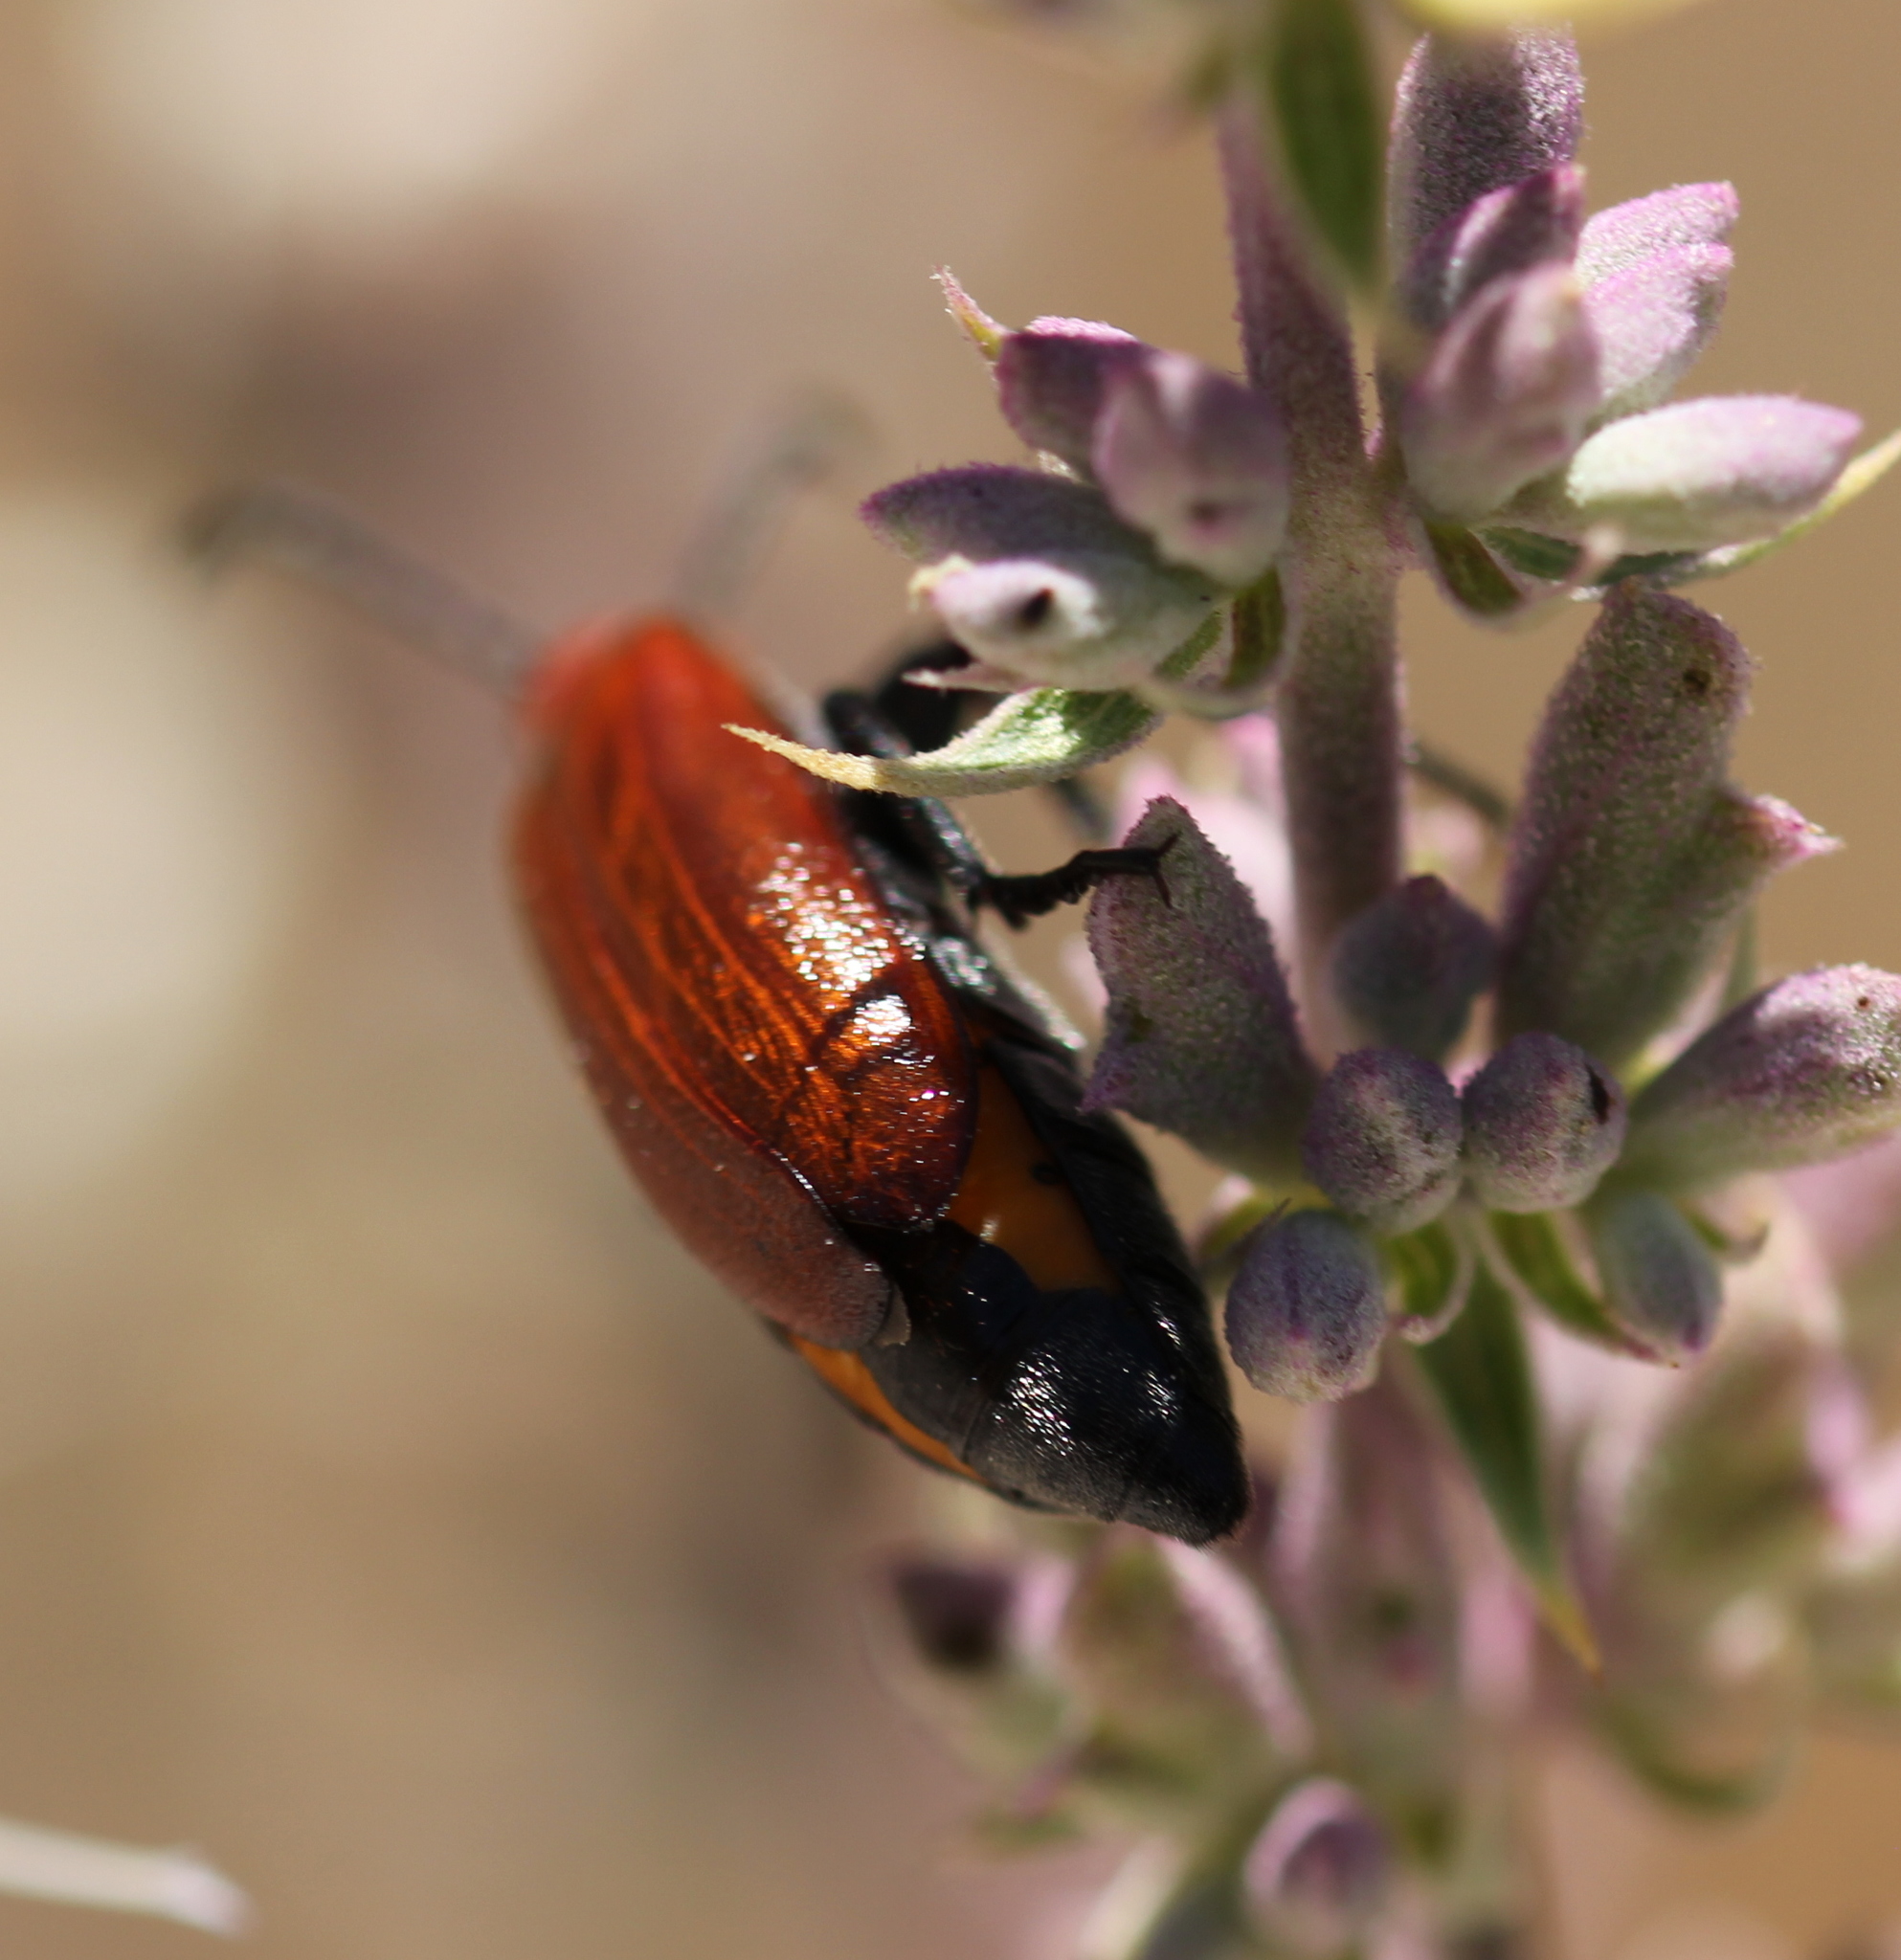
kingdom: Animalia
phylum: Arthropoda
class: Insecta
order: Coleoptera
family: Meloidae
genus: Lytta
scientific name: Lytta nitidicollis
